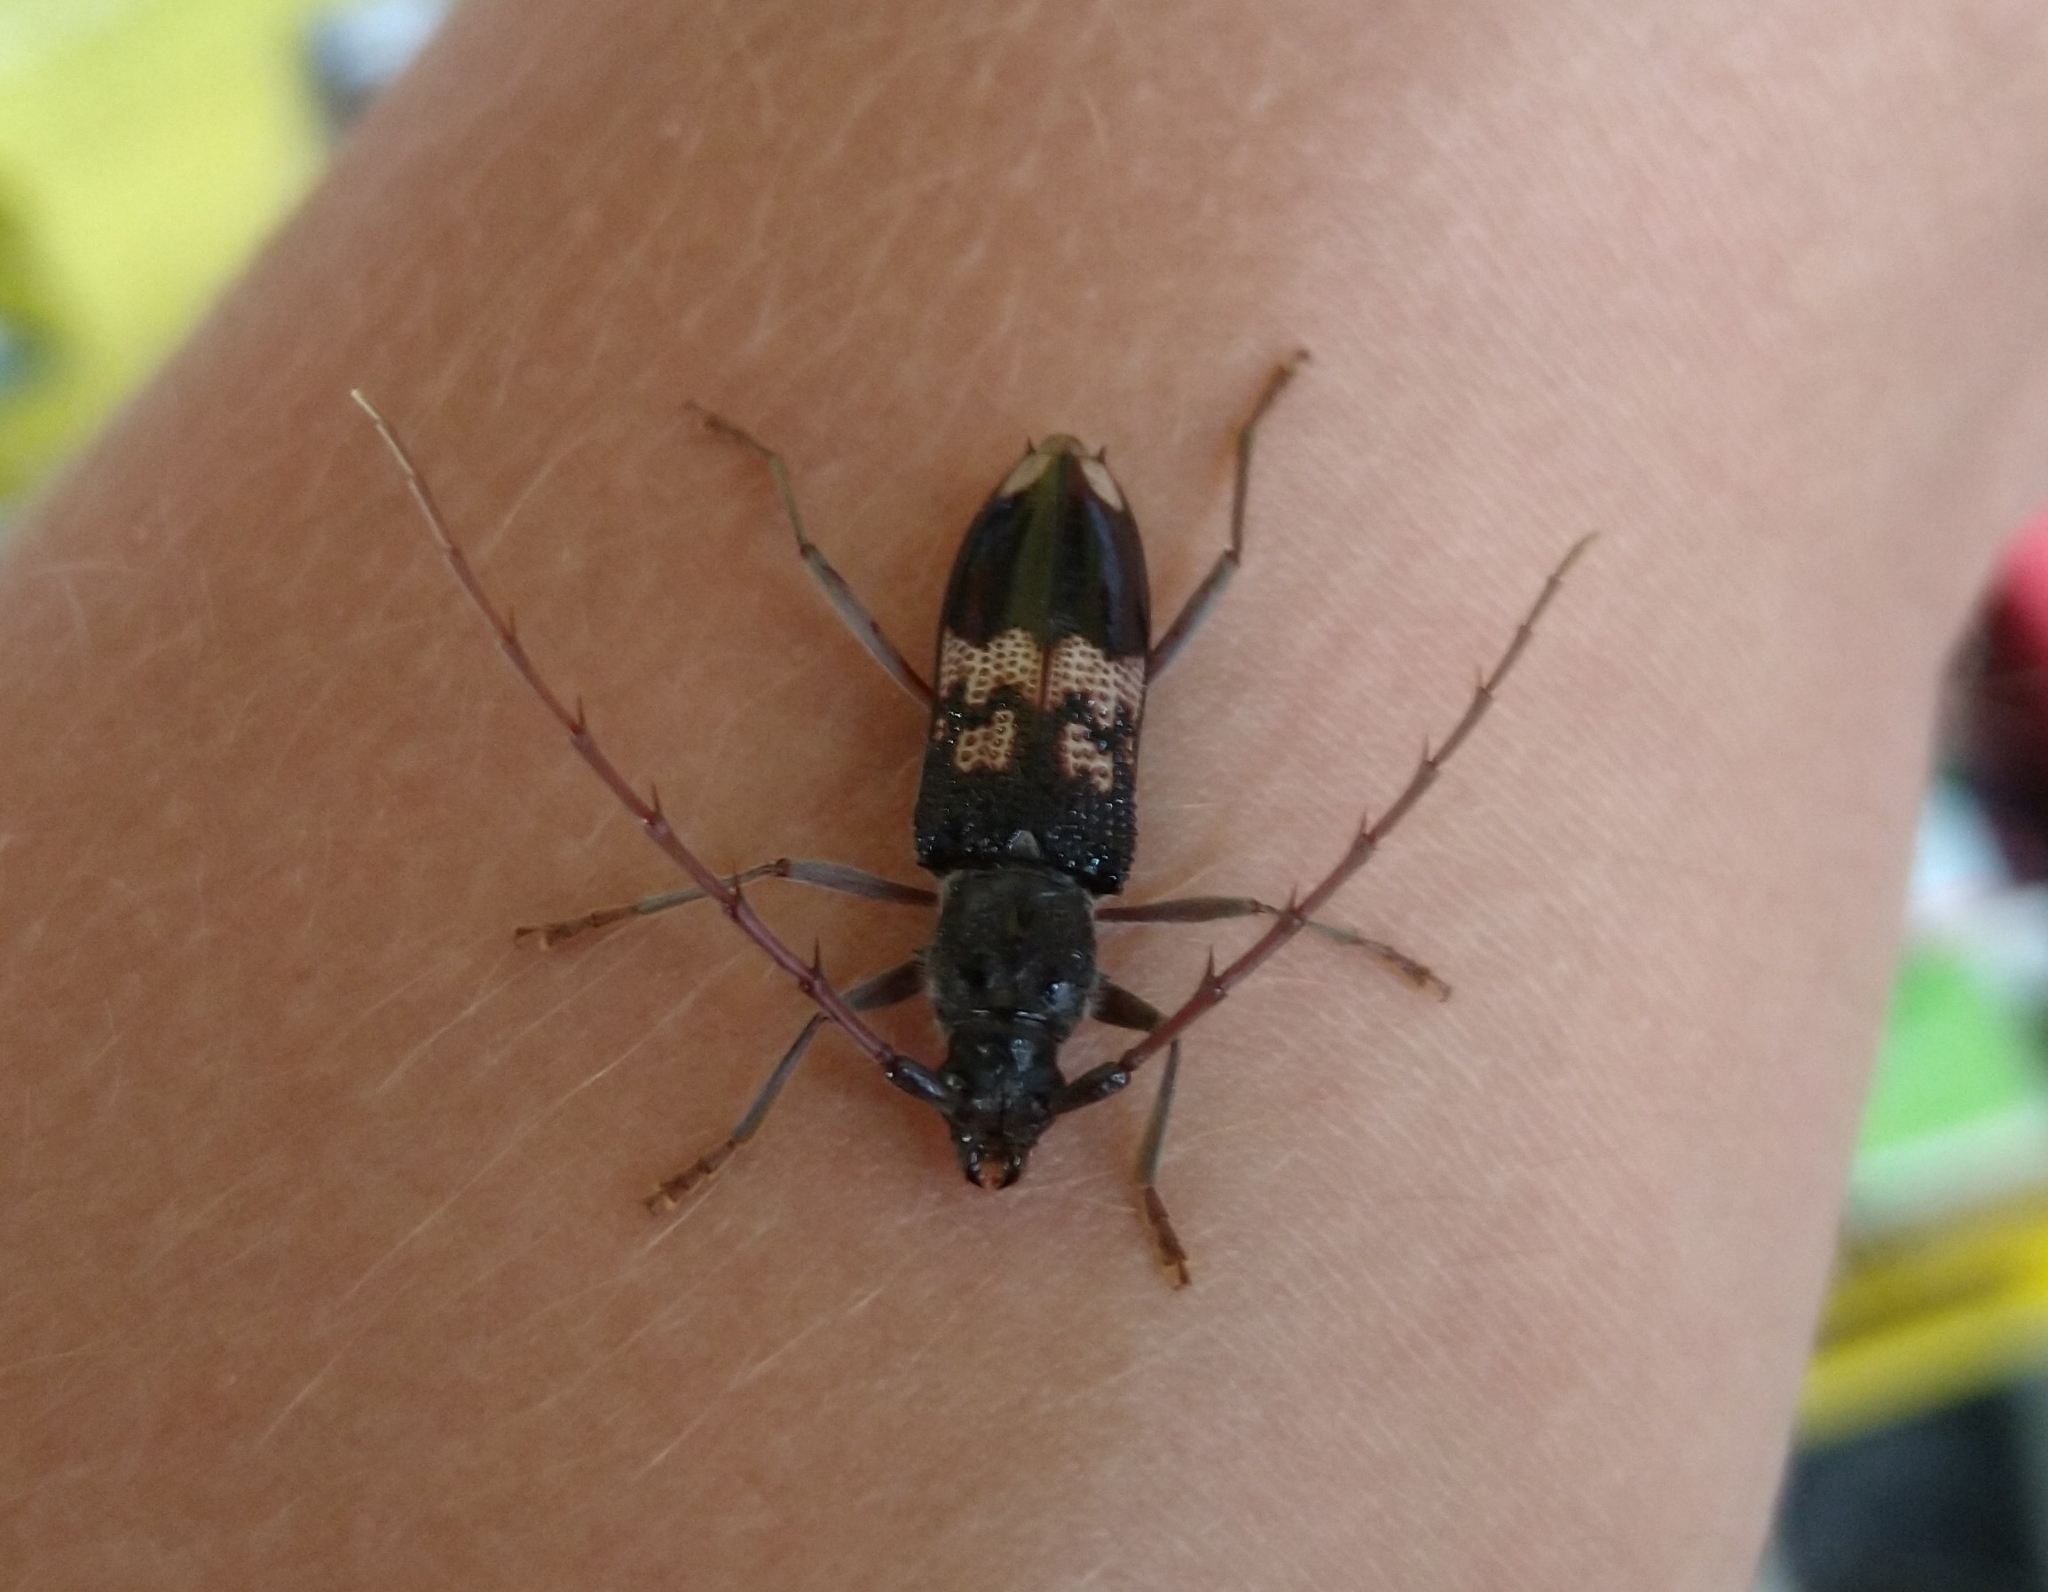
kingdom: Animalia
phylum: Arthropoda
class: Insecta
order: Coleoptera
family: Cerambycidae
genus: Phoracantha
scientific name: Phoracantha semipunctata
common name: Eucalyptus longhorn borer
